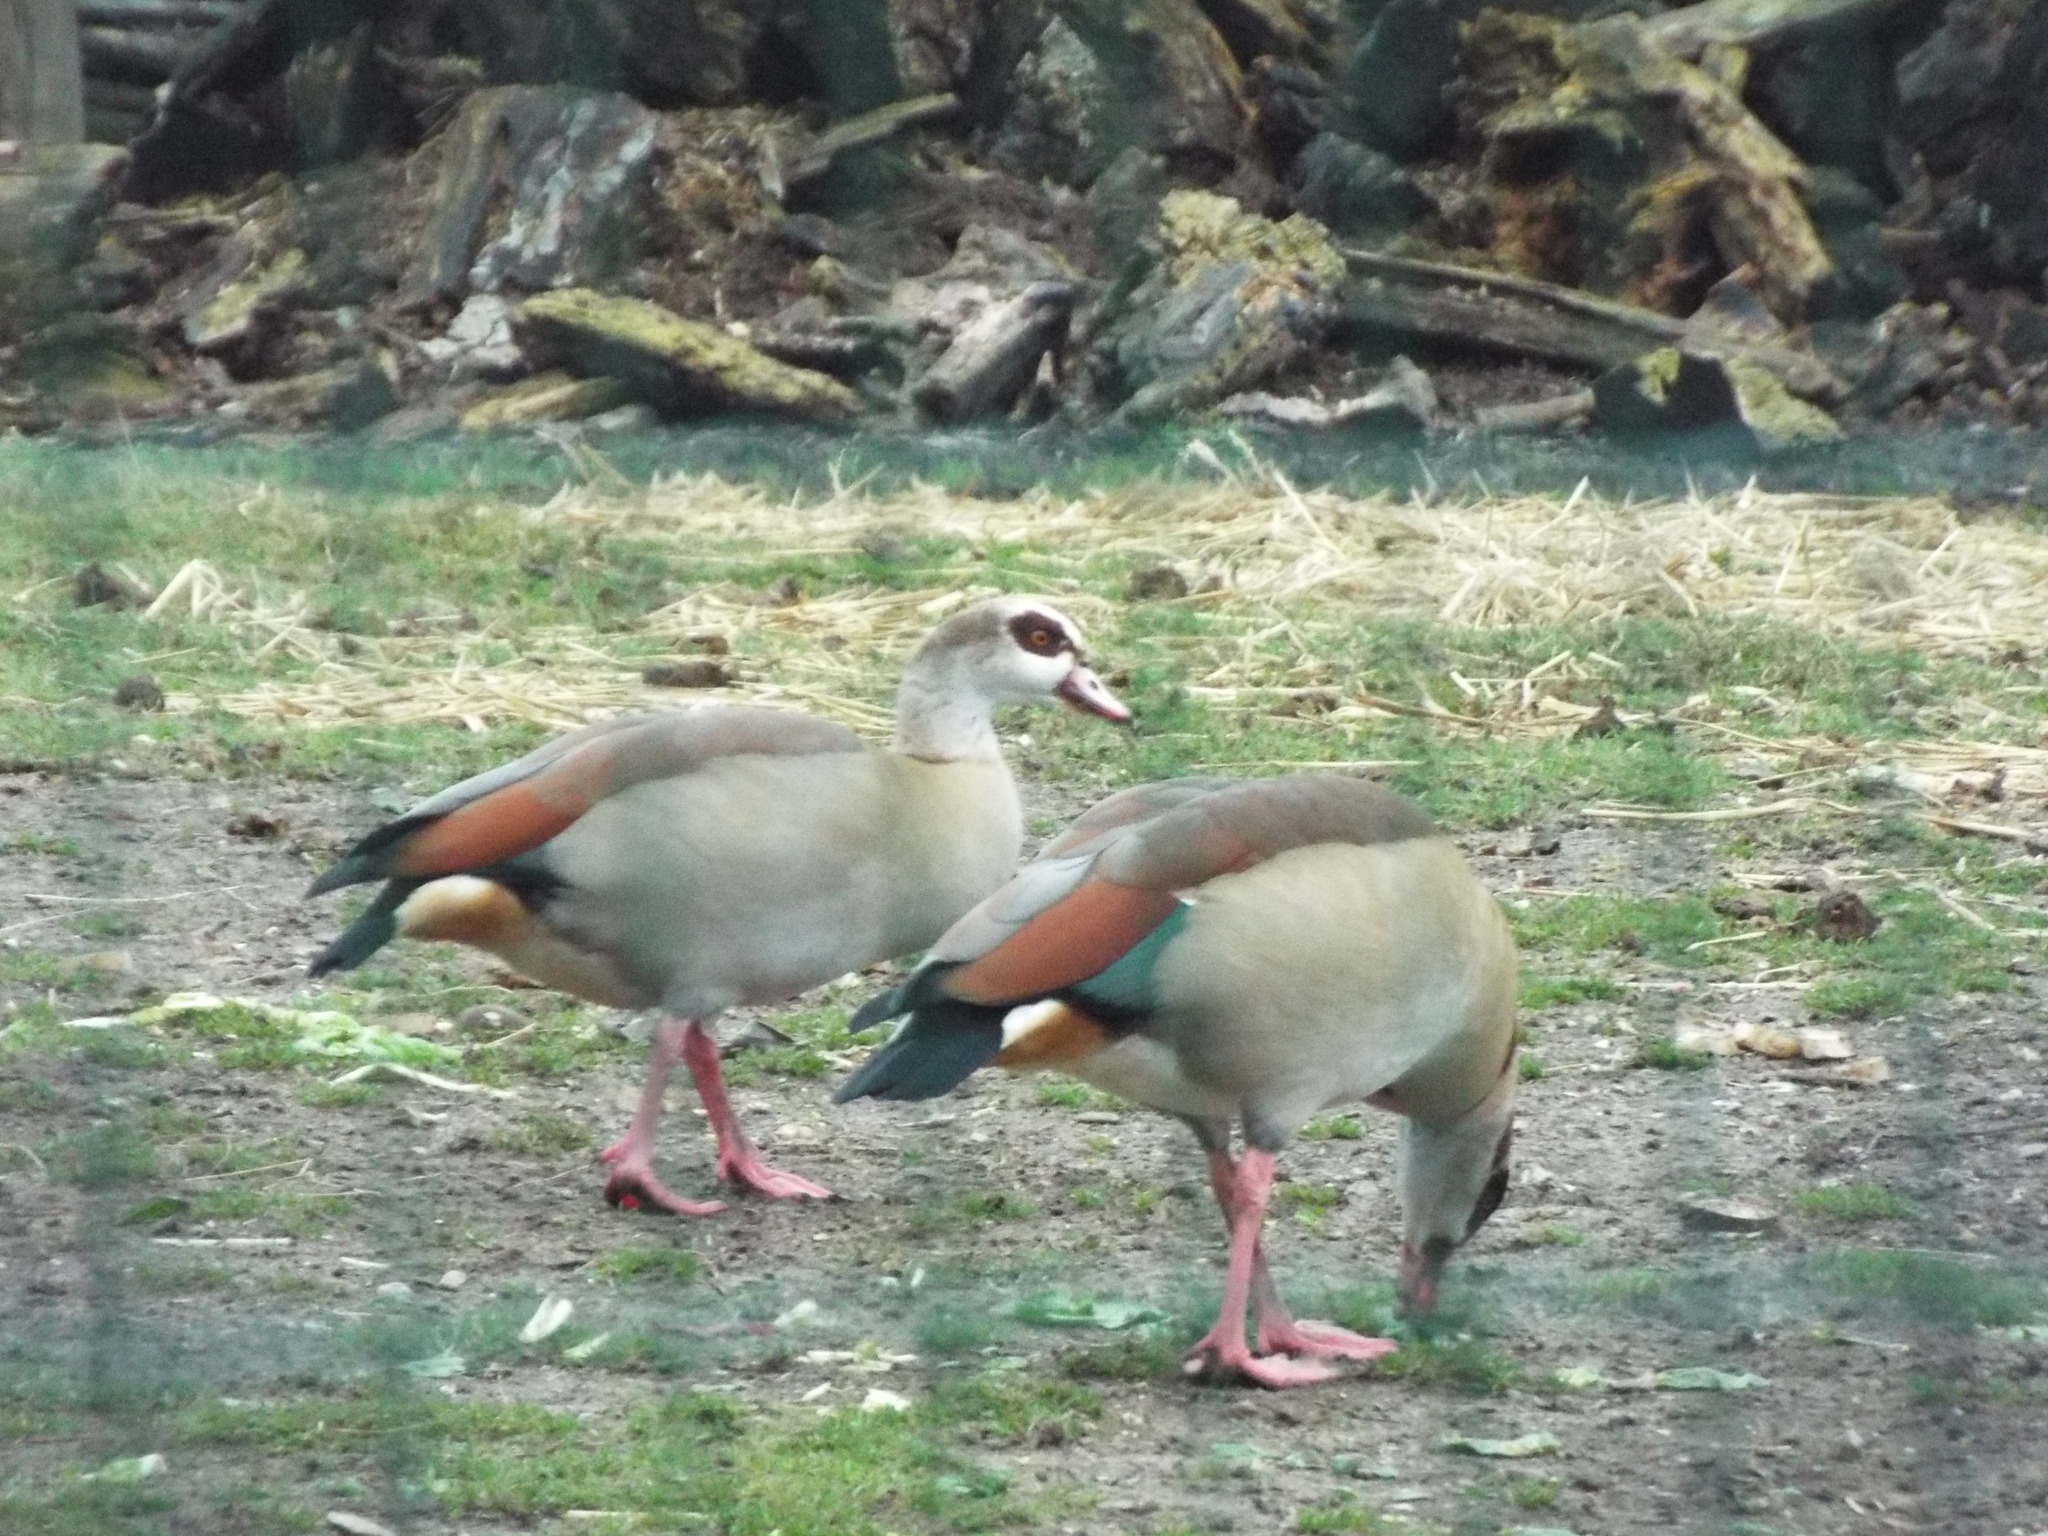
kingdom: Animalia
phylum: Chordata
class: Aves
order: Anseriformes
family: Anatidae
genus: Alopochen
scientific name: Alopochen aegyptiaca
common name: Egyptian goose
